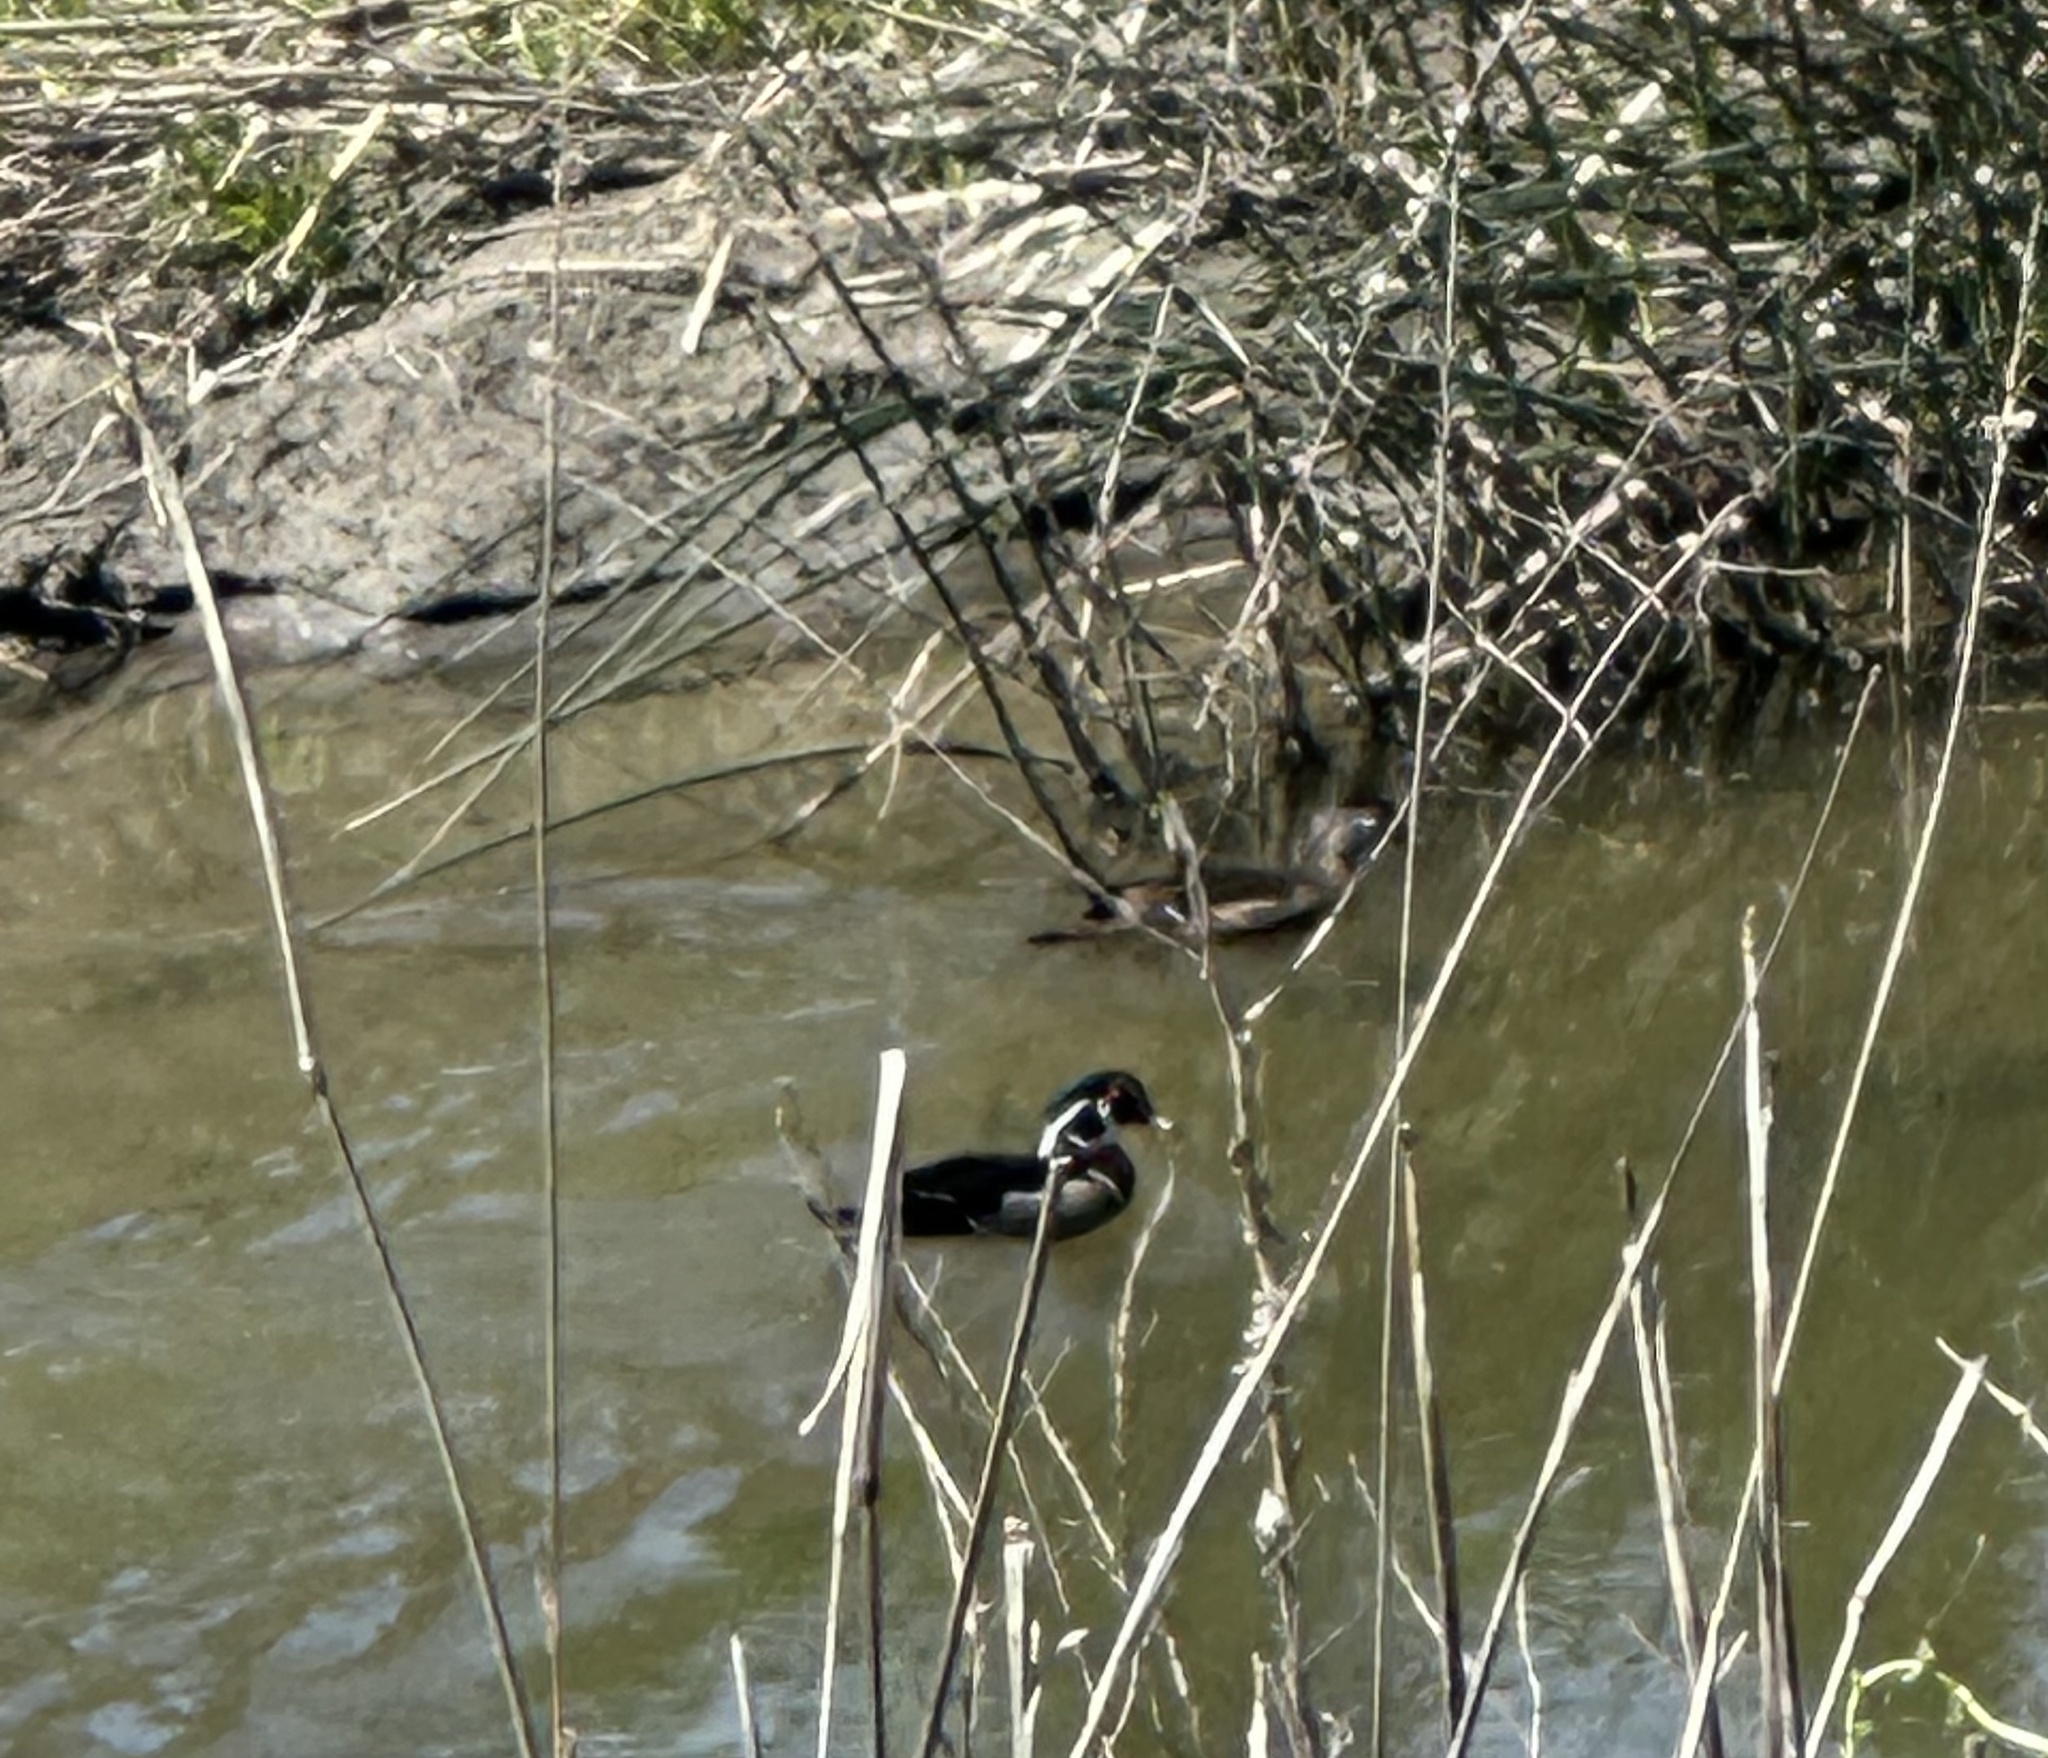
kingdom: Animalia
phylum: Chordata
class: Aves
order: Anseriformes
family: Anatidae
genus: Aix
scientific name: Aix sponsa
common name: Wood duck
